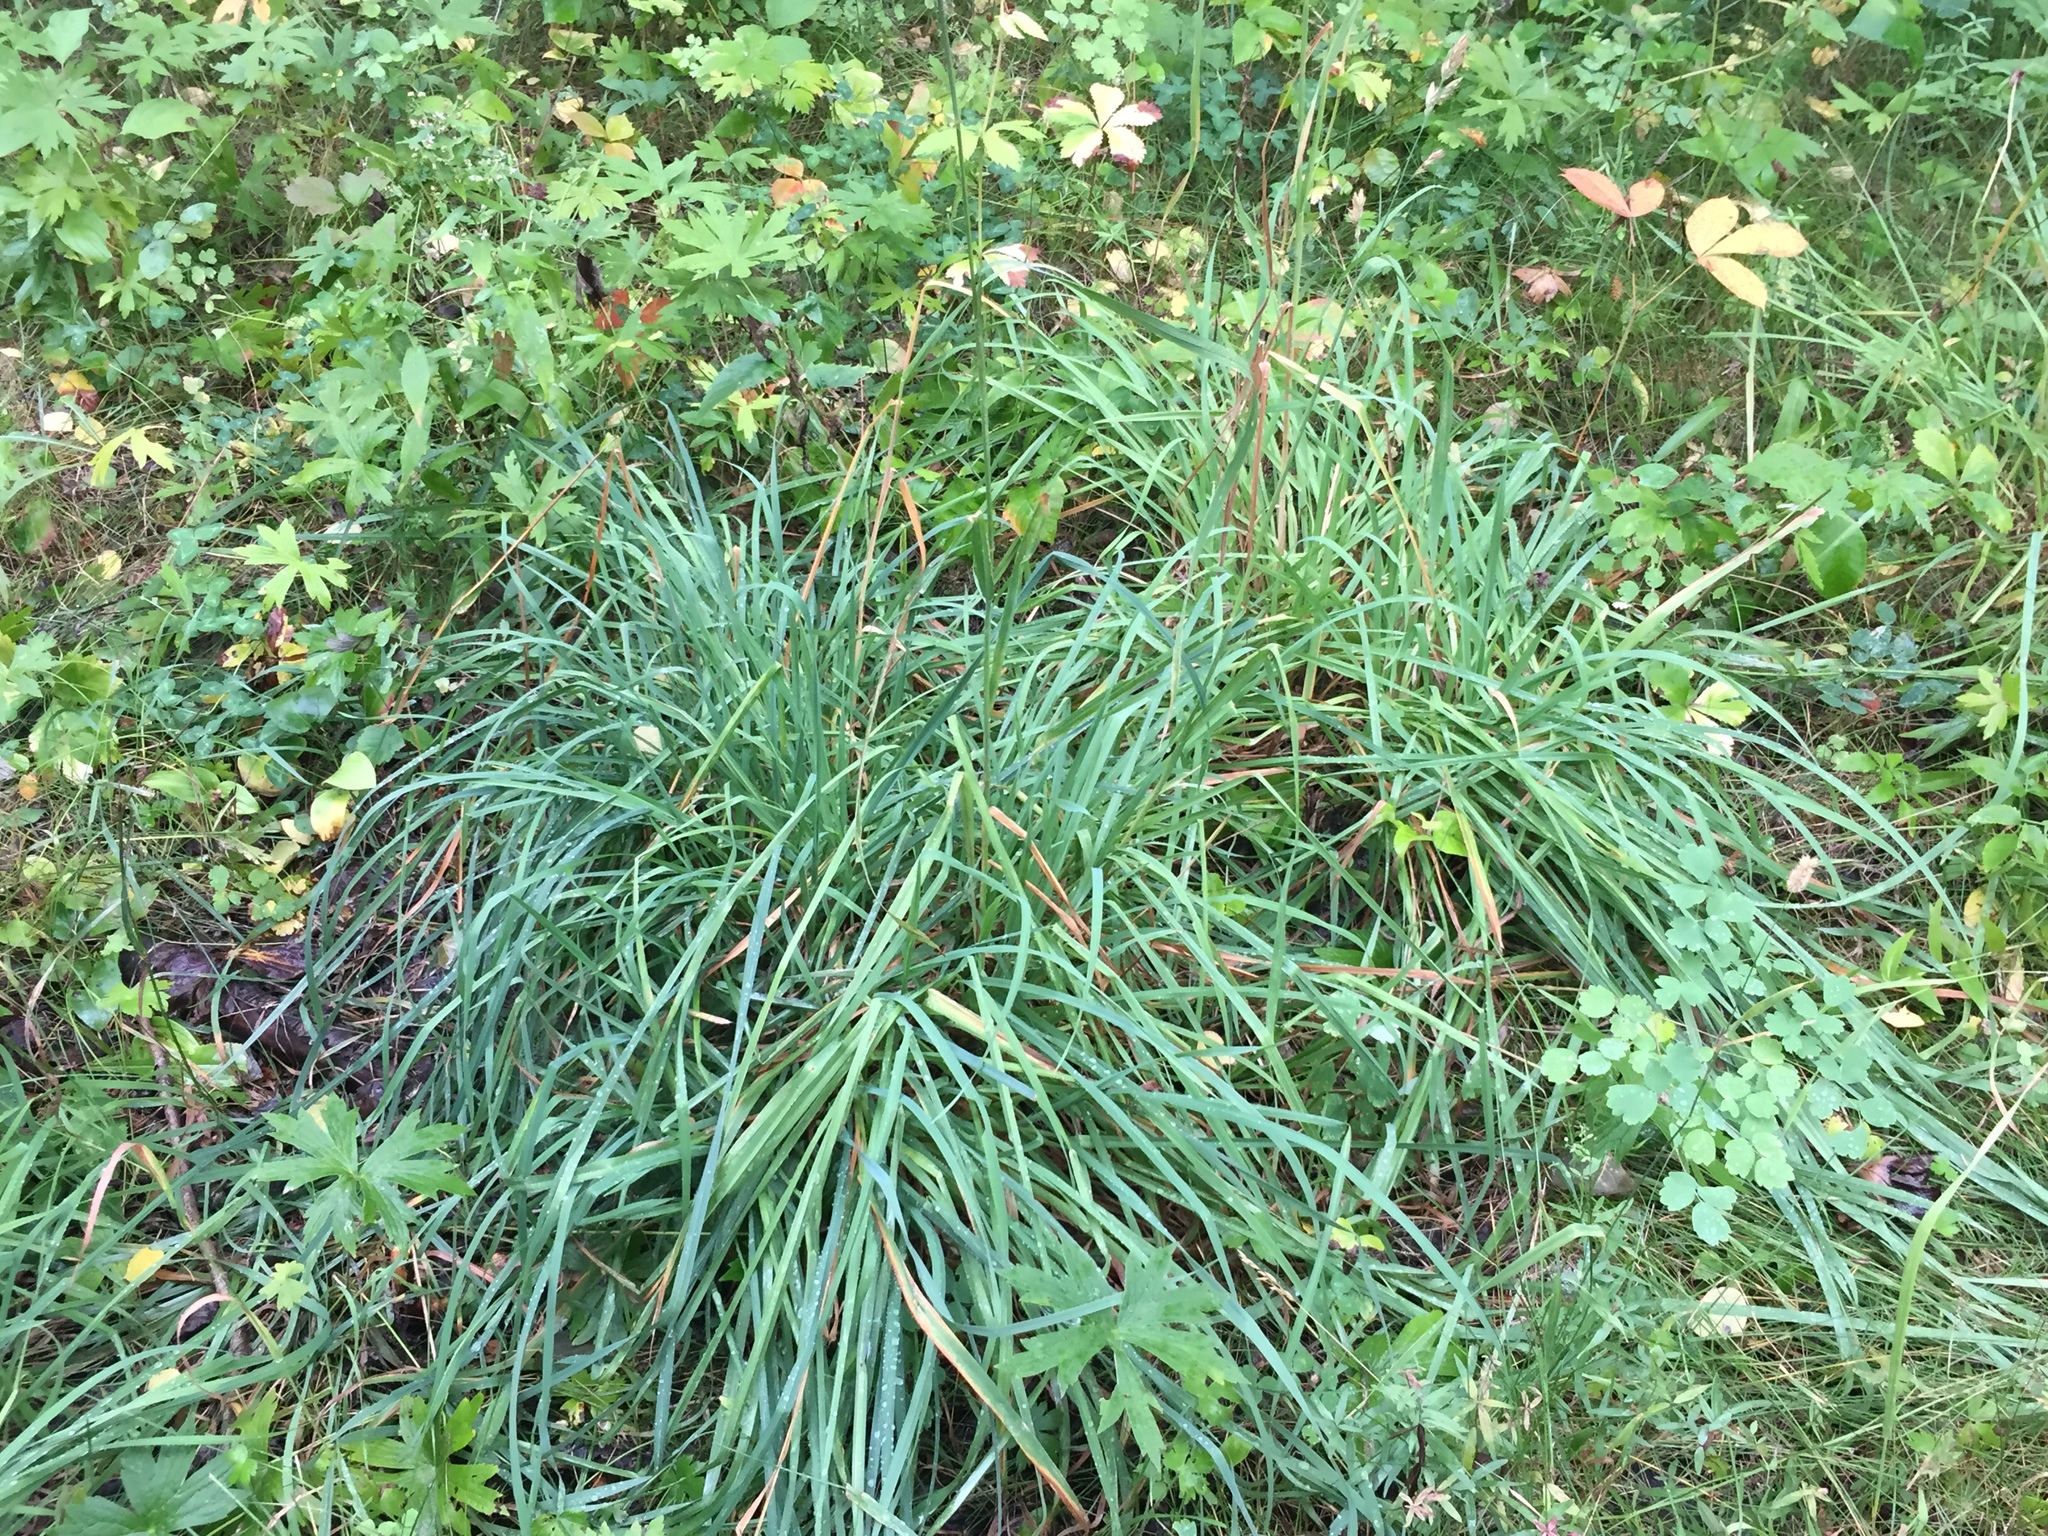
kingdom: Plantae
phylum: Tracheophyta
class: Liliopsida
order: Poales
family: Poaceae
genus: Dactylis
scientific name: Dactylis glomerata
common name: Orchardgrass
